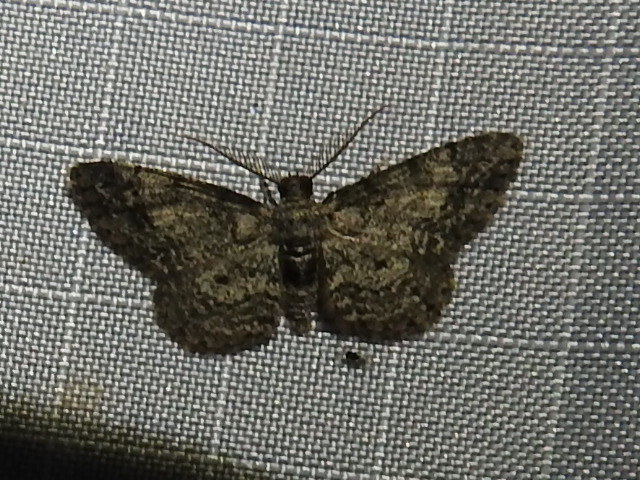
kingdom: Animalia
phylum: Arthropoda
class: Insecta
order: Lepidoptera
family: Geometridae
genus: Glenoides
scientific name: Glenoides texanaria
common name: Texas gray
